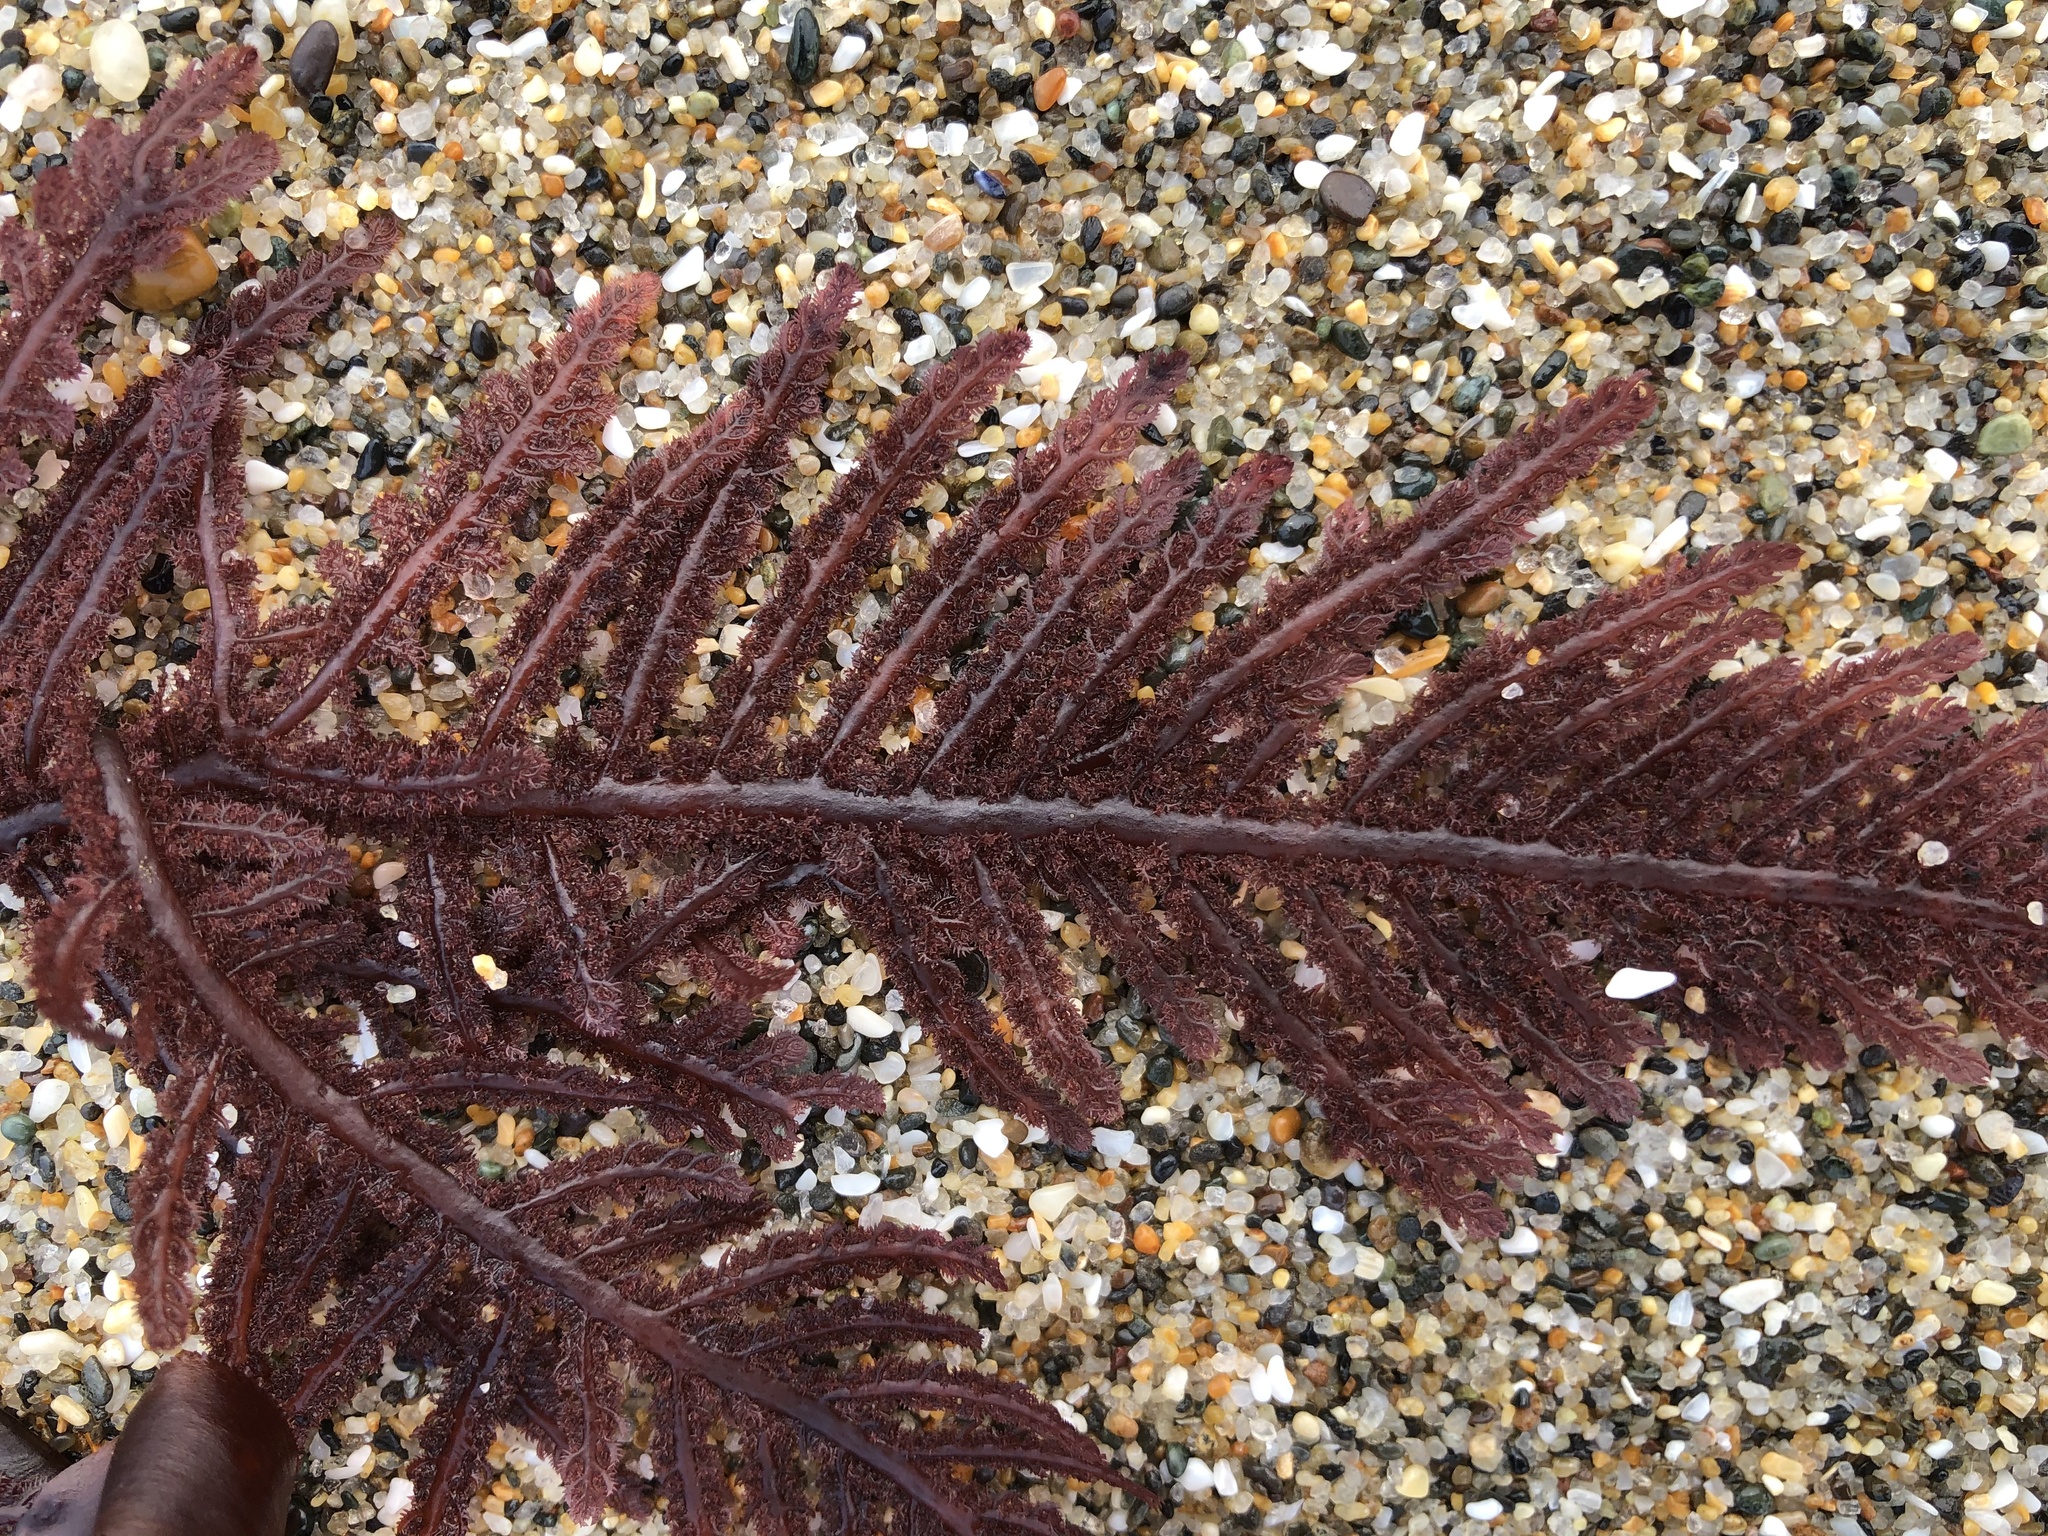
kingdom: Plantae
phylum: Rhodophyta
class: Florideophyceae
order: Ceramiales
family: Wrangeliaceae
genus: Neoptilota
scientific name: Neoptilota densa
